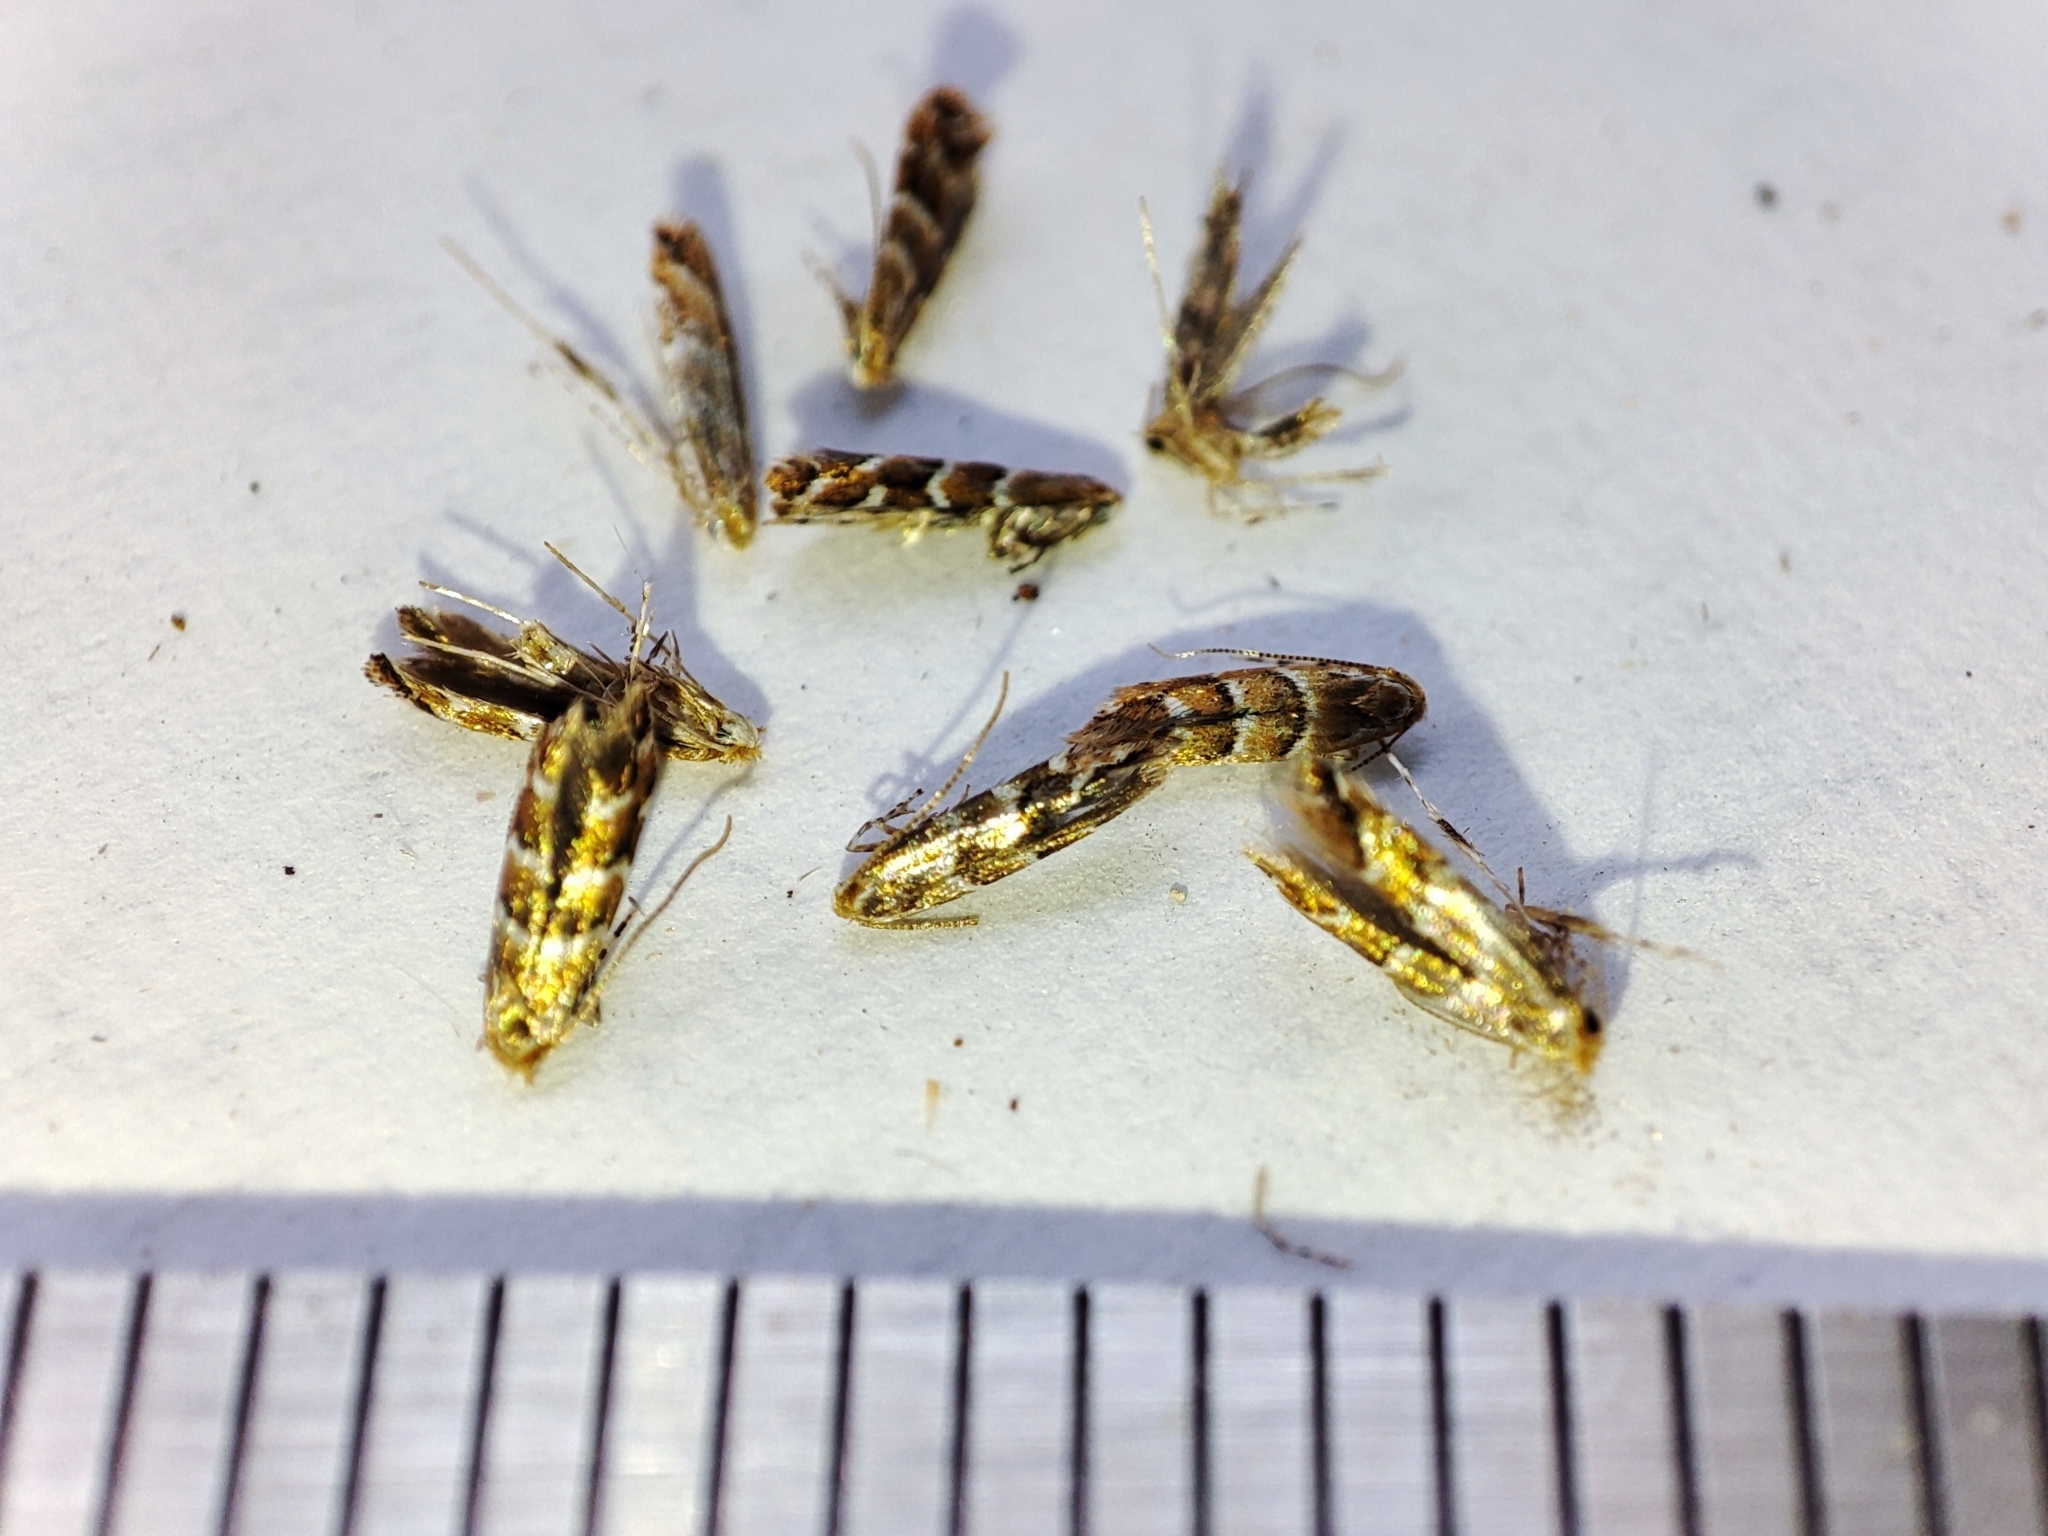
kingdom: Animalia
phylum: Arthropoda
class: Insecta
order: Lepidoptera
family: Gracillariidae
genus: Cameraria
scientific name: Cameraria ohridella
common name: Horse-chestnut leaf-miner
